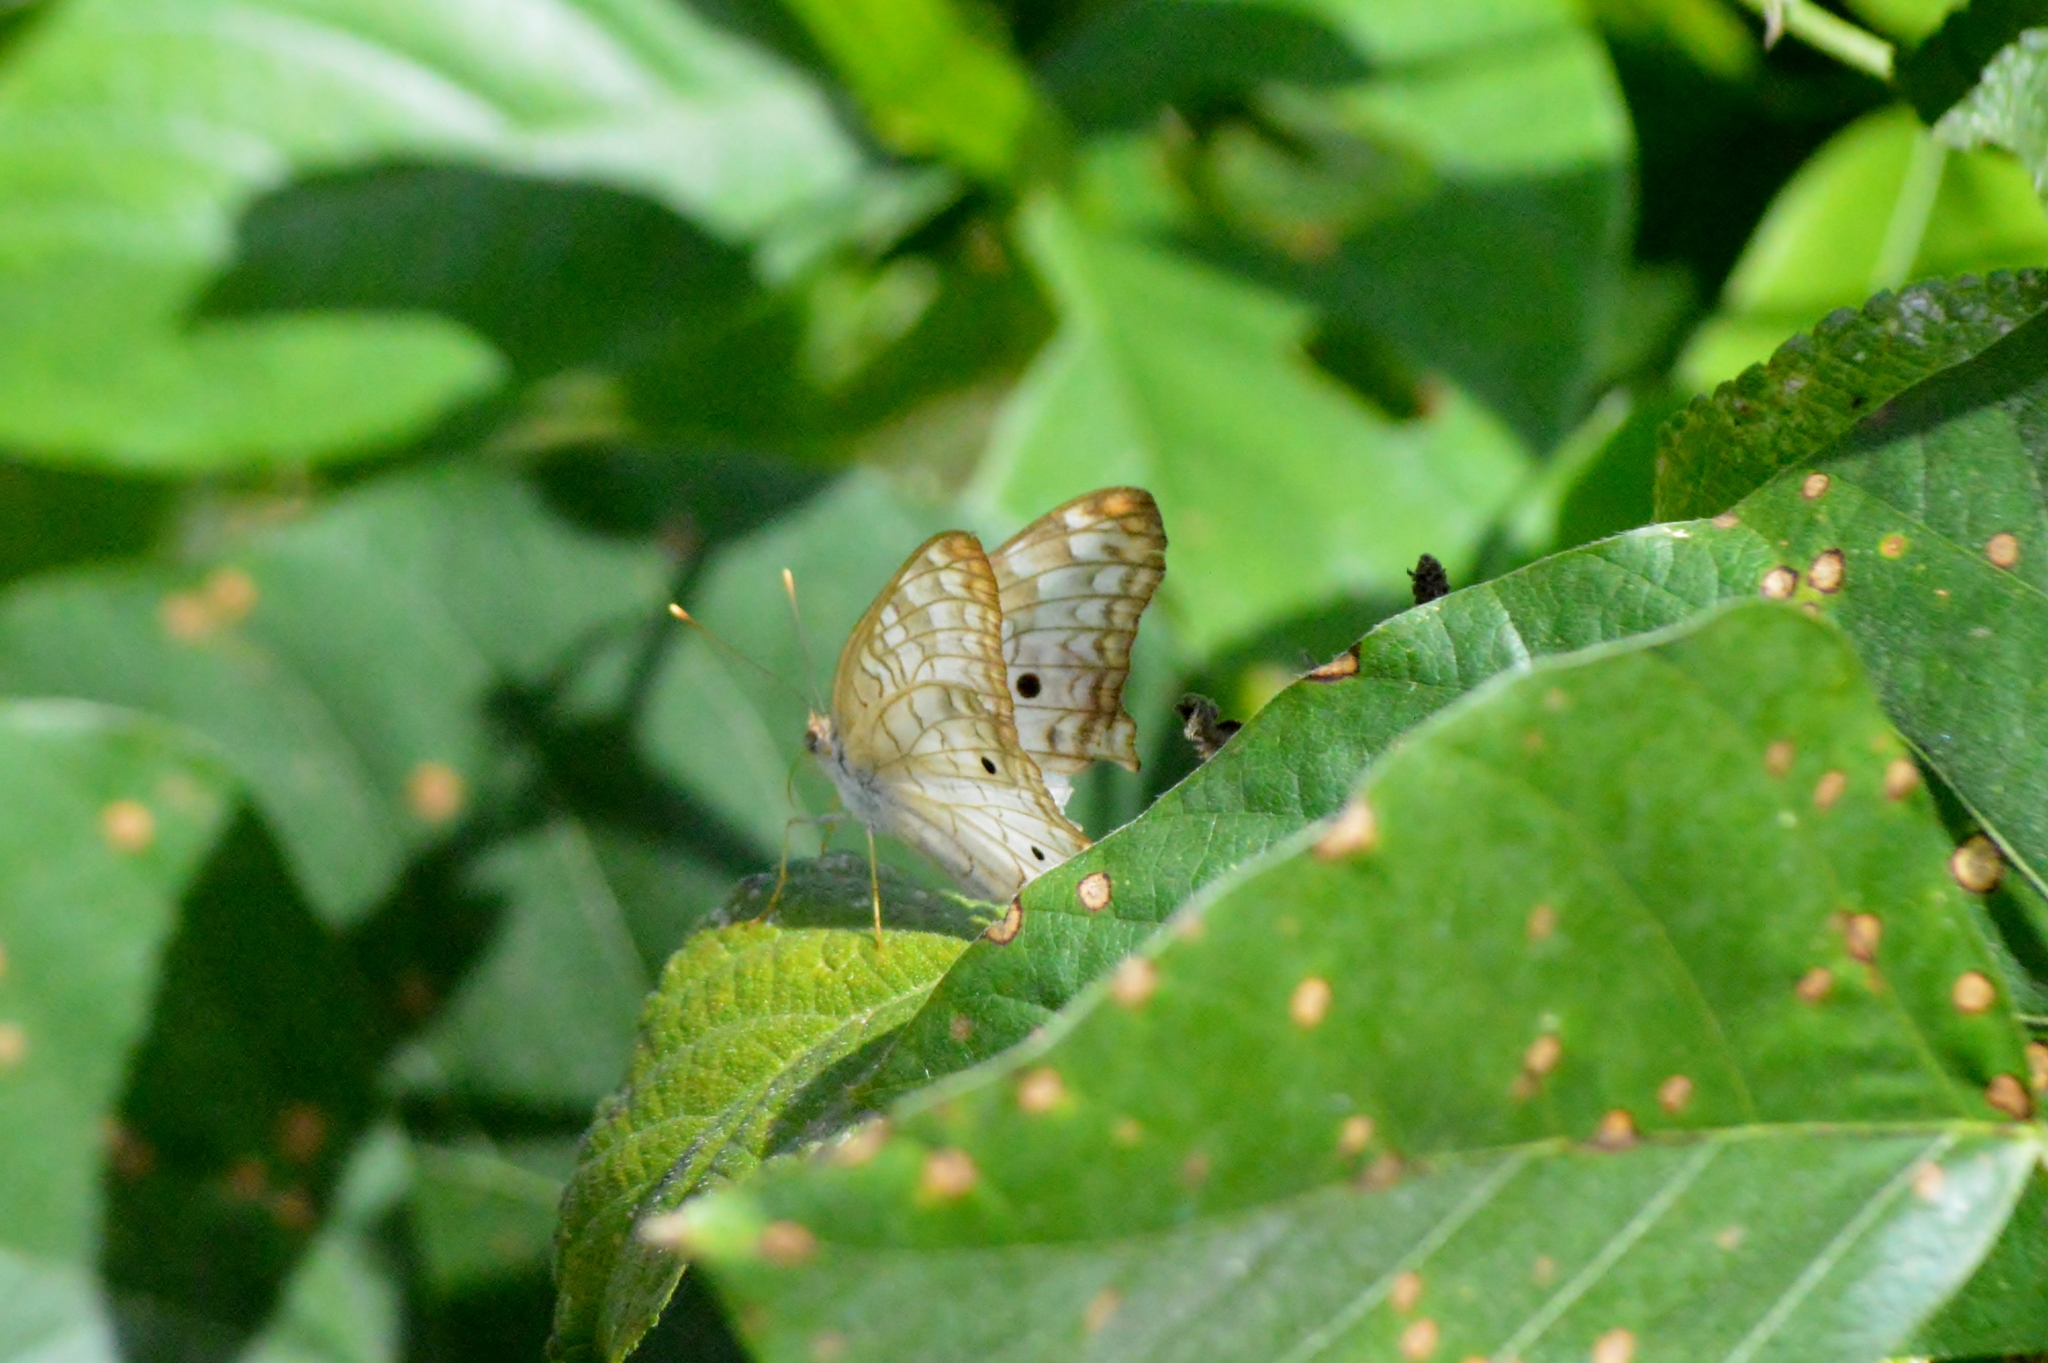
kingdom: Animalia
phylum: Arthropoda
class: Insecta
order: Lepidoptera
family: Nymphalidae
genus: Anartia
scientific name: Anartia jatrophae
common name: White peacock
